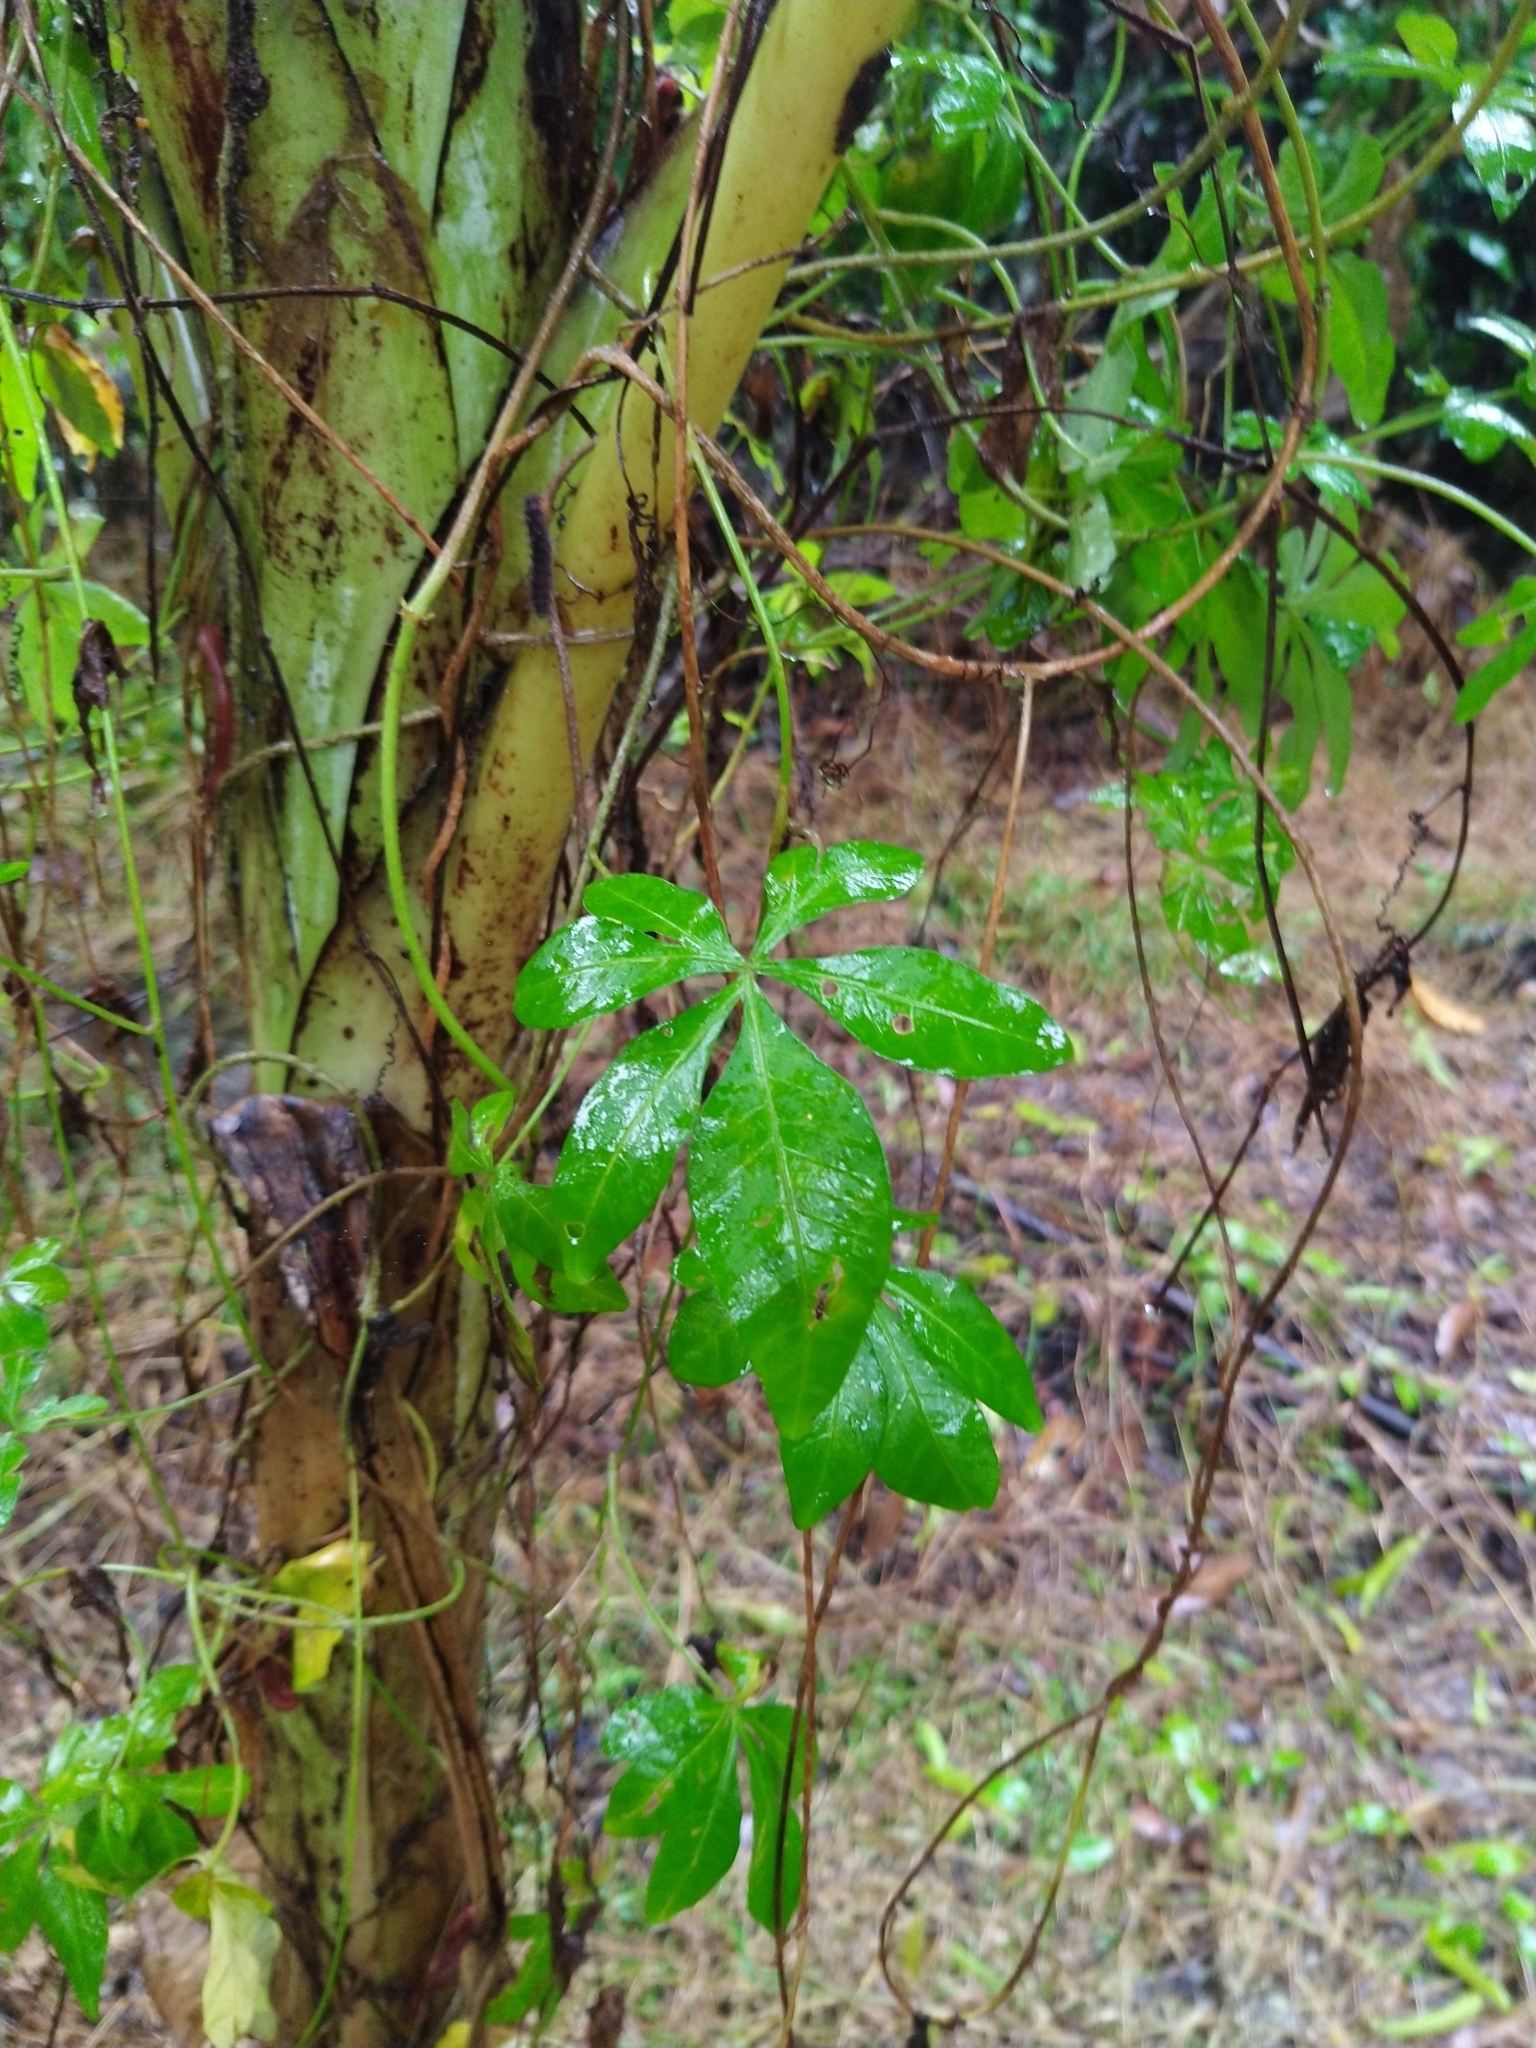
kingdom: Plantae
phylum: Tracheophyta
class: Magnoliopsida
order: Solanales
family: Convolvulaceae
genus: Ipomoea
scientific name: Ipomoea cairica
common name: Mile a minute vine
